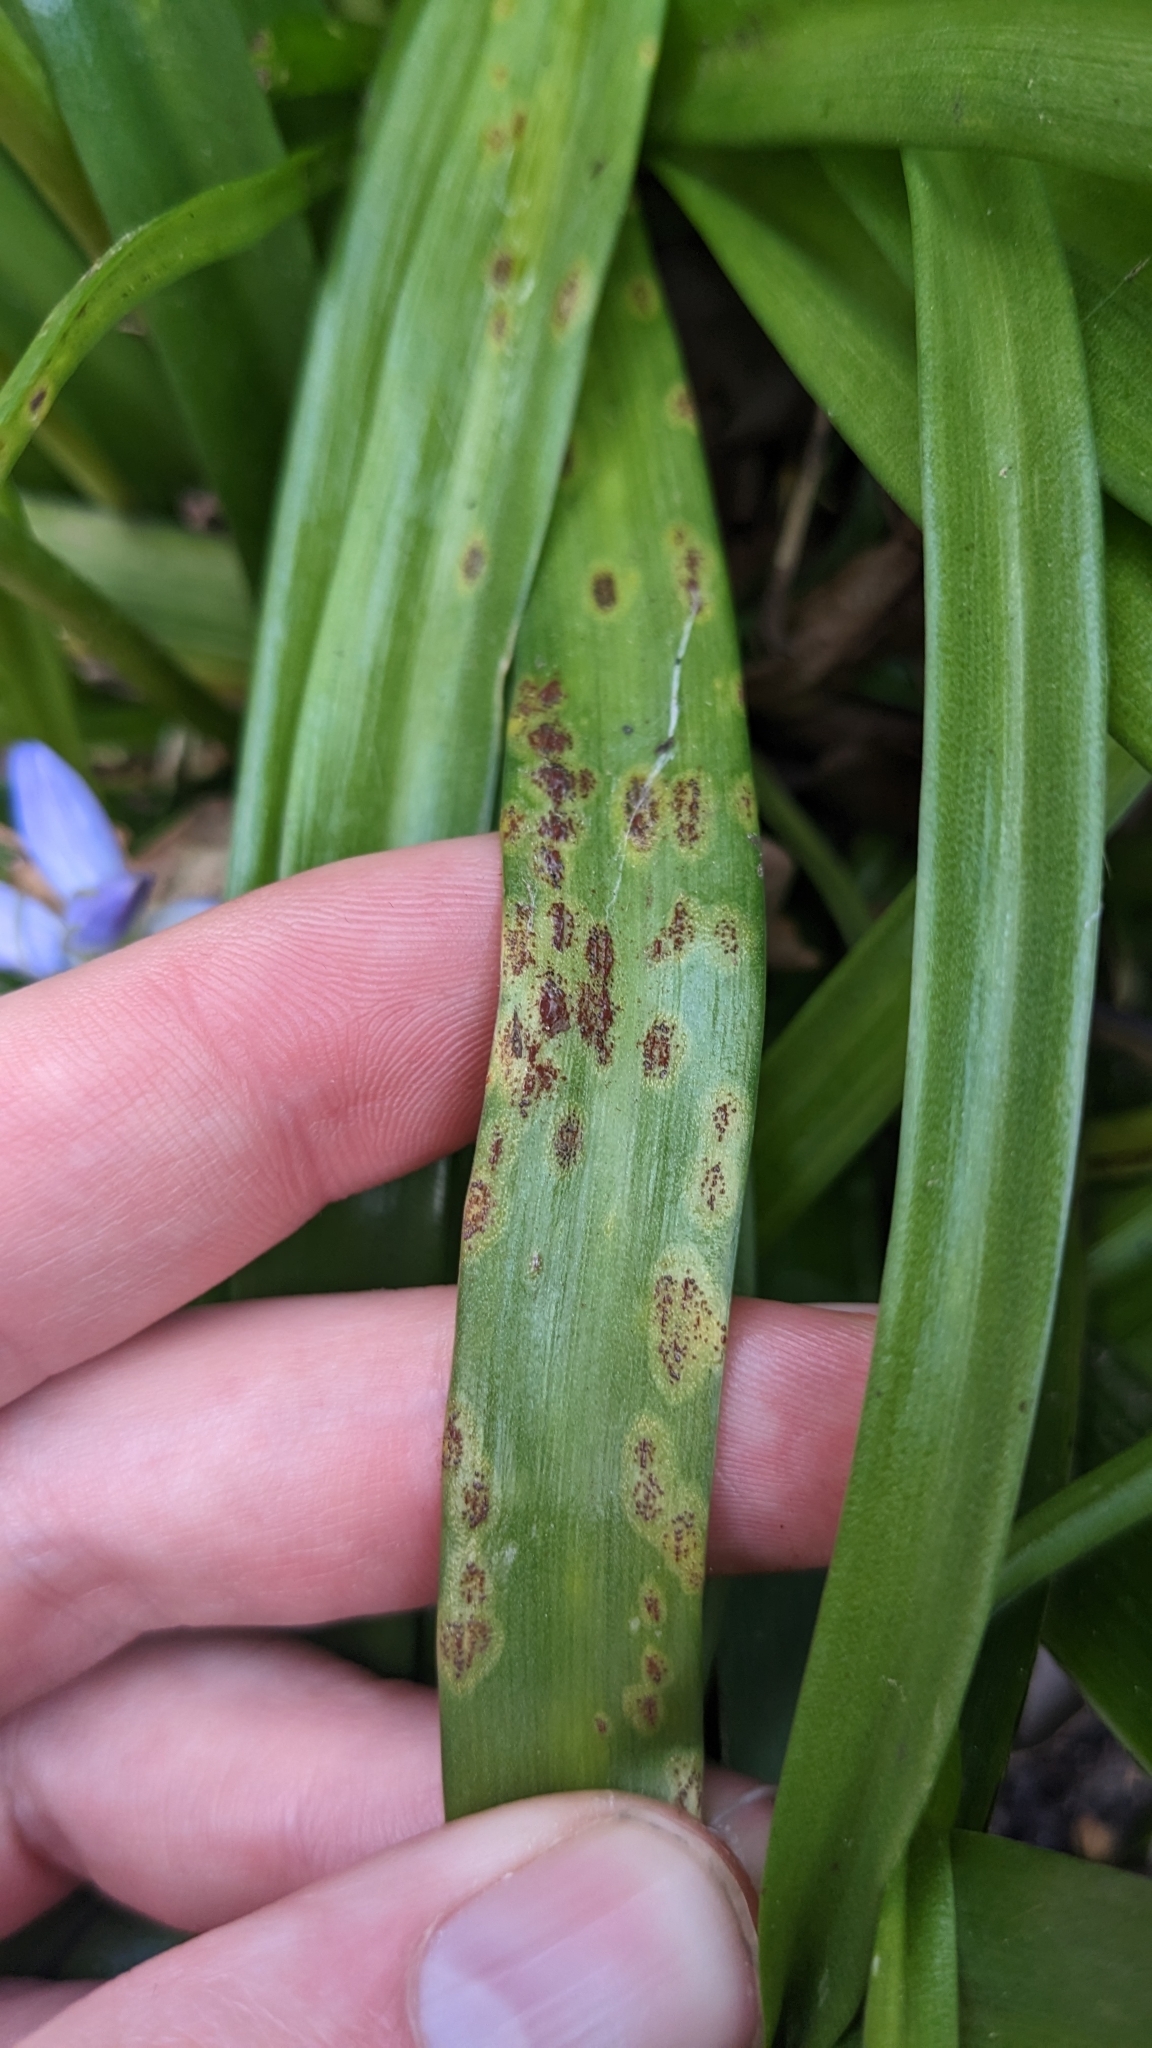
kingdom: Fungi
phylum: Basidiomycota
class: Pucciniomycetes
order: Pucciniales
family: Pucciniaceae
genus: Uromyces
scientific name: Uromyces hyacinthi
